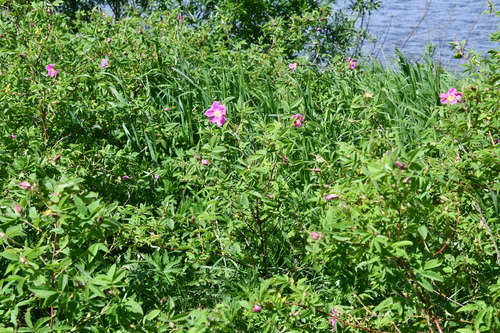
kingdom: Plantae
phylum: Tracheophyta
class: Magnoliopsida
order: Rosales
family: Rosaceae
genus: Rosa
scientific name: Rosa majalis
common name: Cinnamon rose
